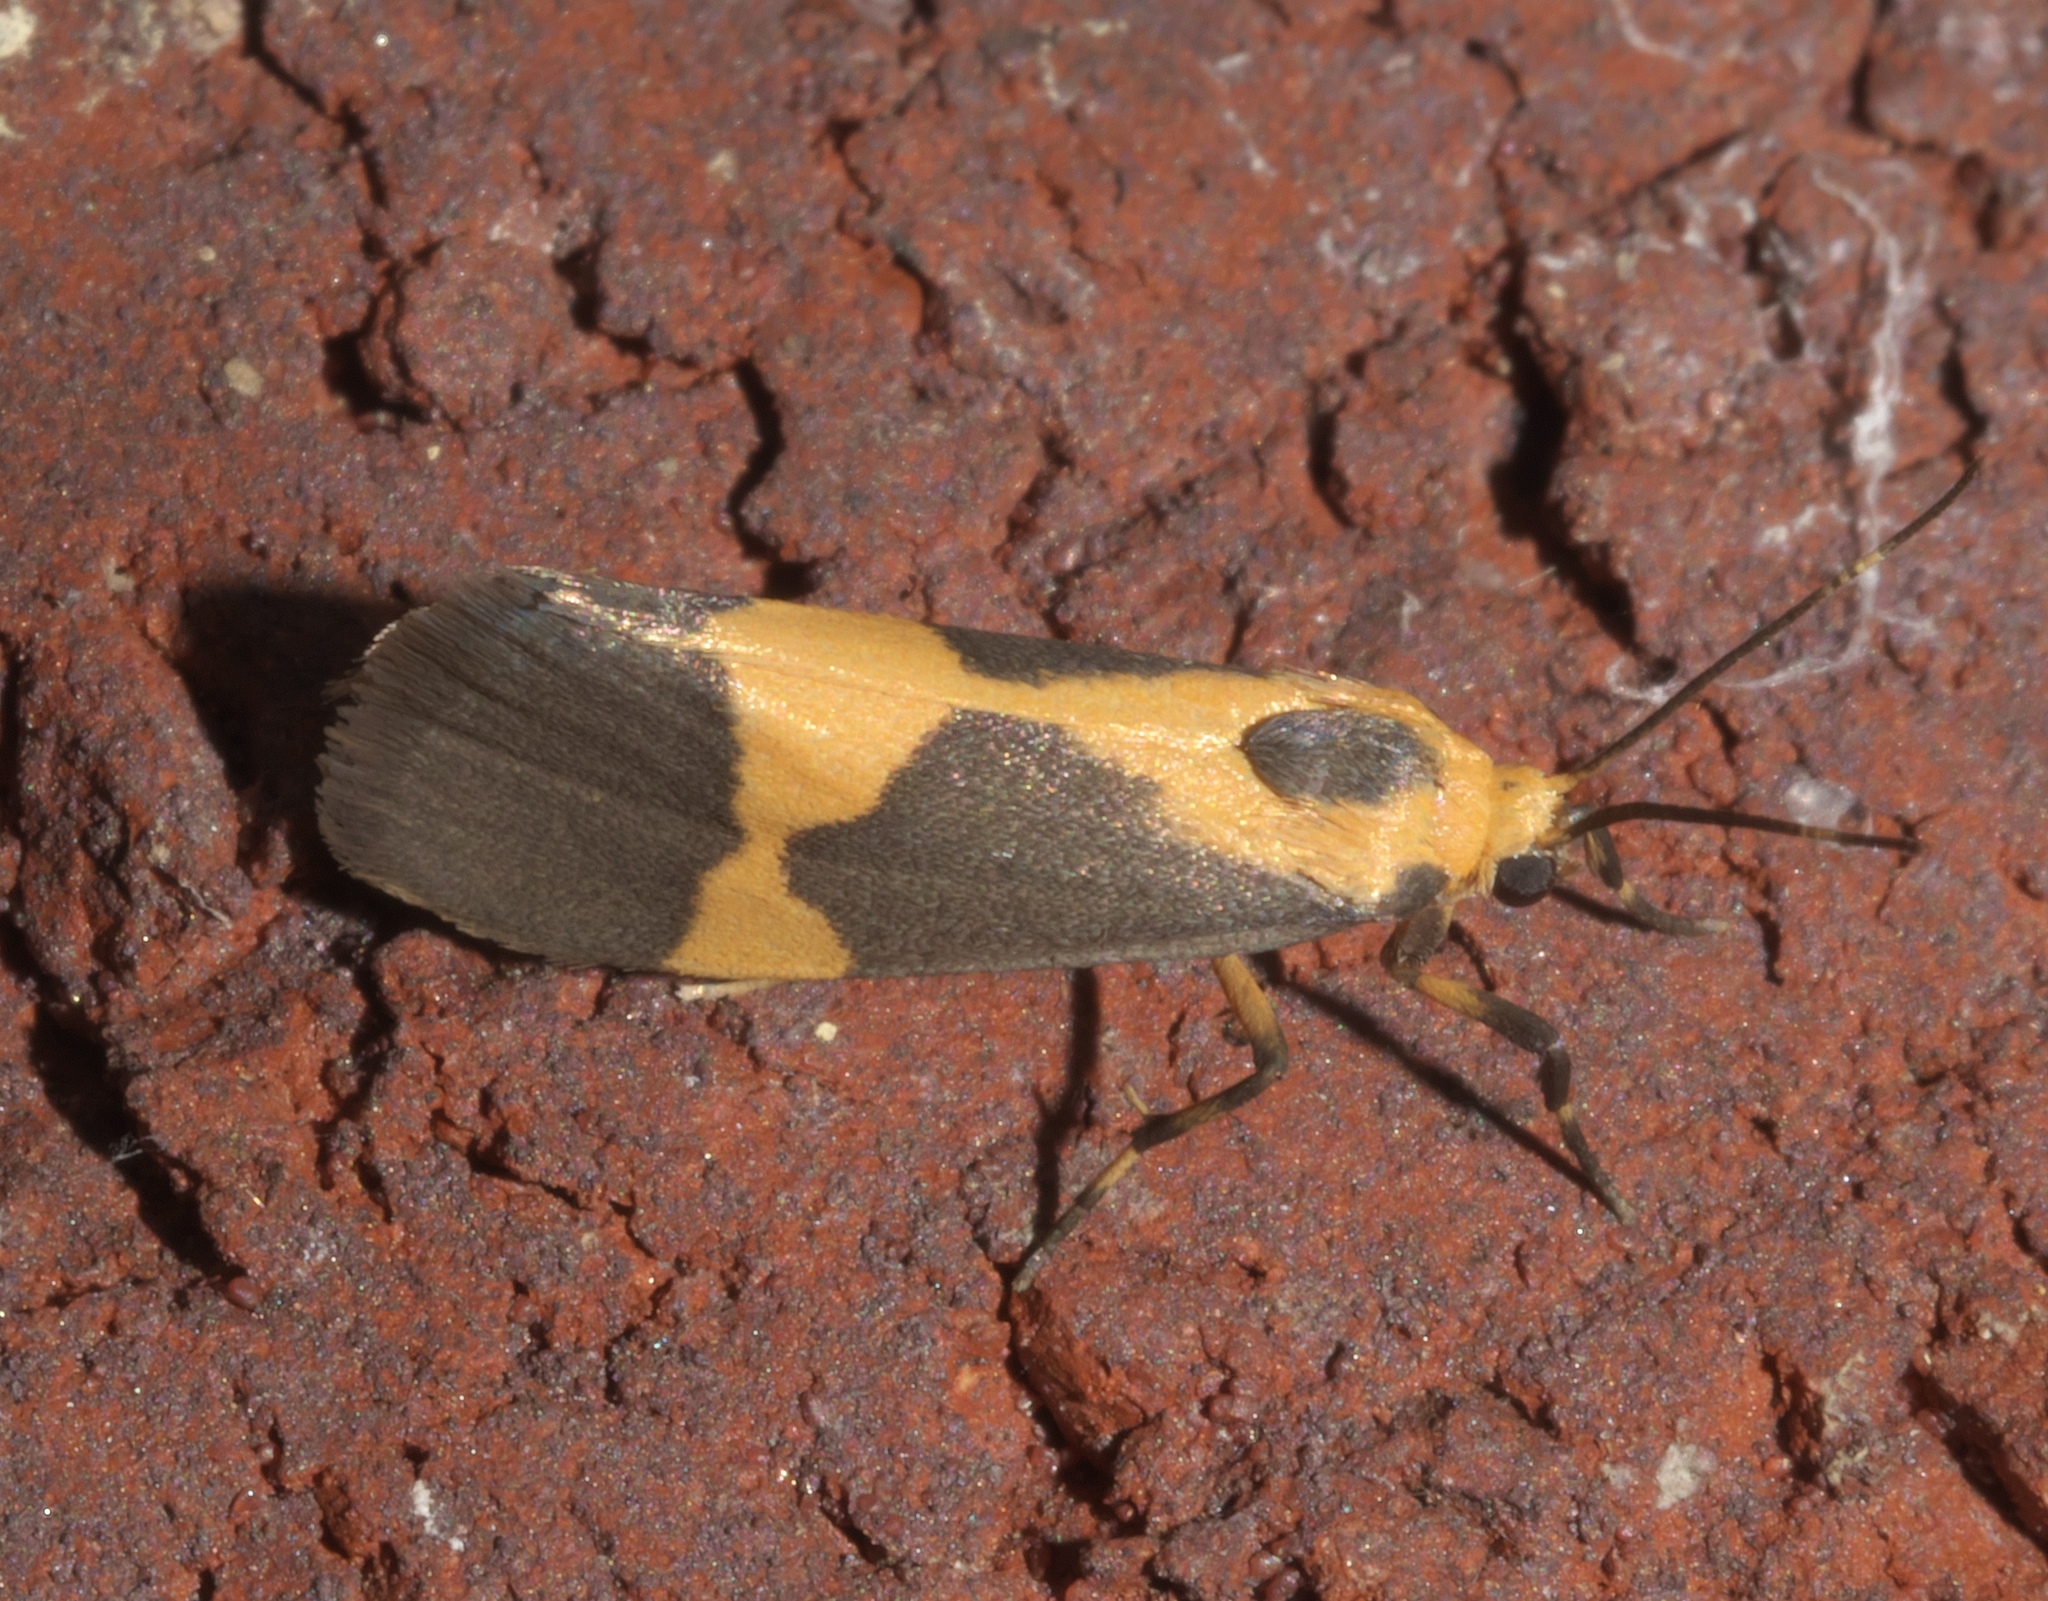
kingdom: Animalia
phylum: Arthropoda
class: Insecta
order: Lepidoptera
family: Erebidae
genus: Cisthene
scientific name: Cisthene unifascia
